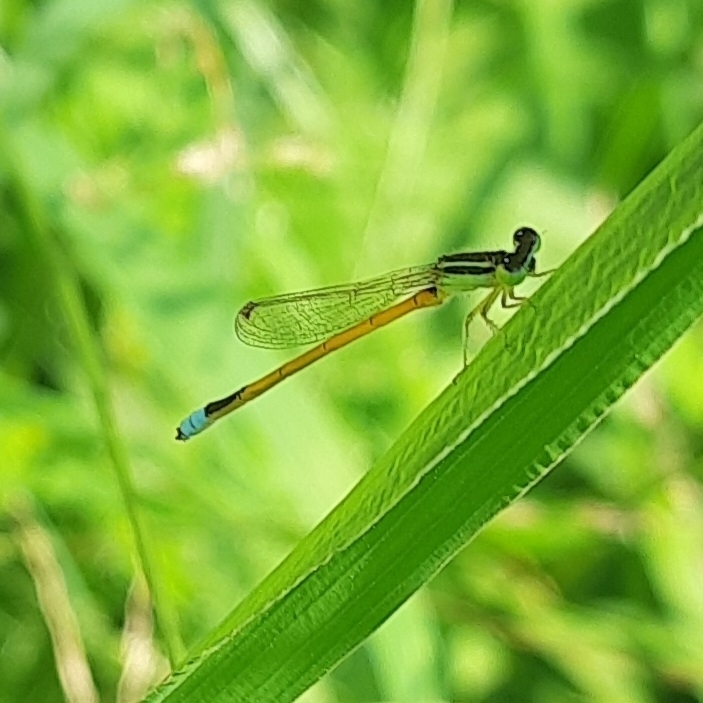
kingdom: Animalia
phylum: Arthropoda
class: Insecta
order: Odonata
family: Coenagrionidae
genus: Ischnura
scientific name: Ischnura rubilio
